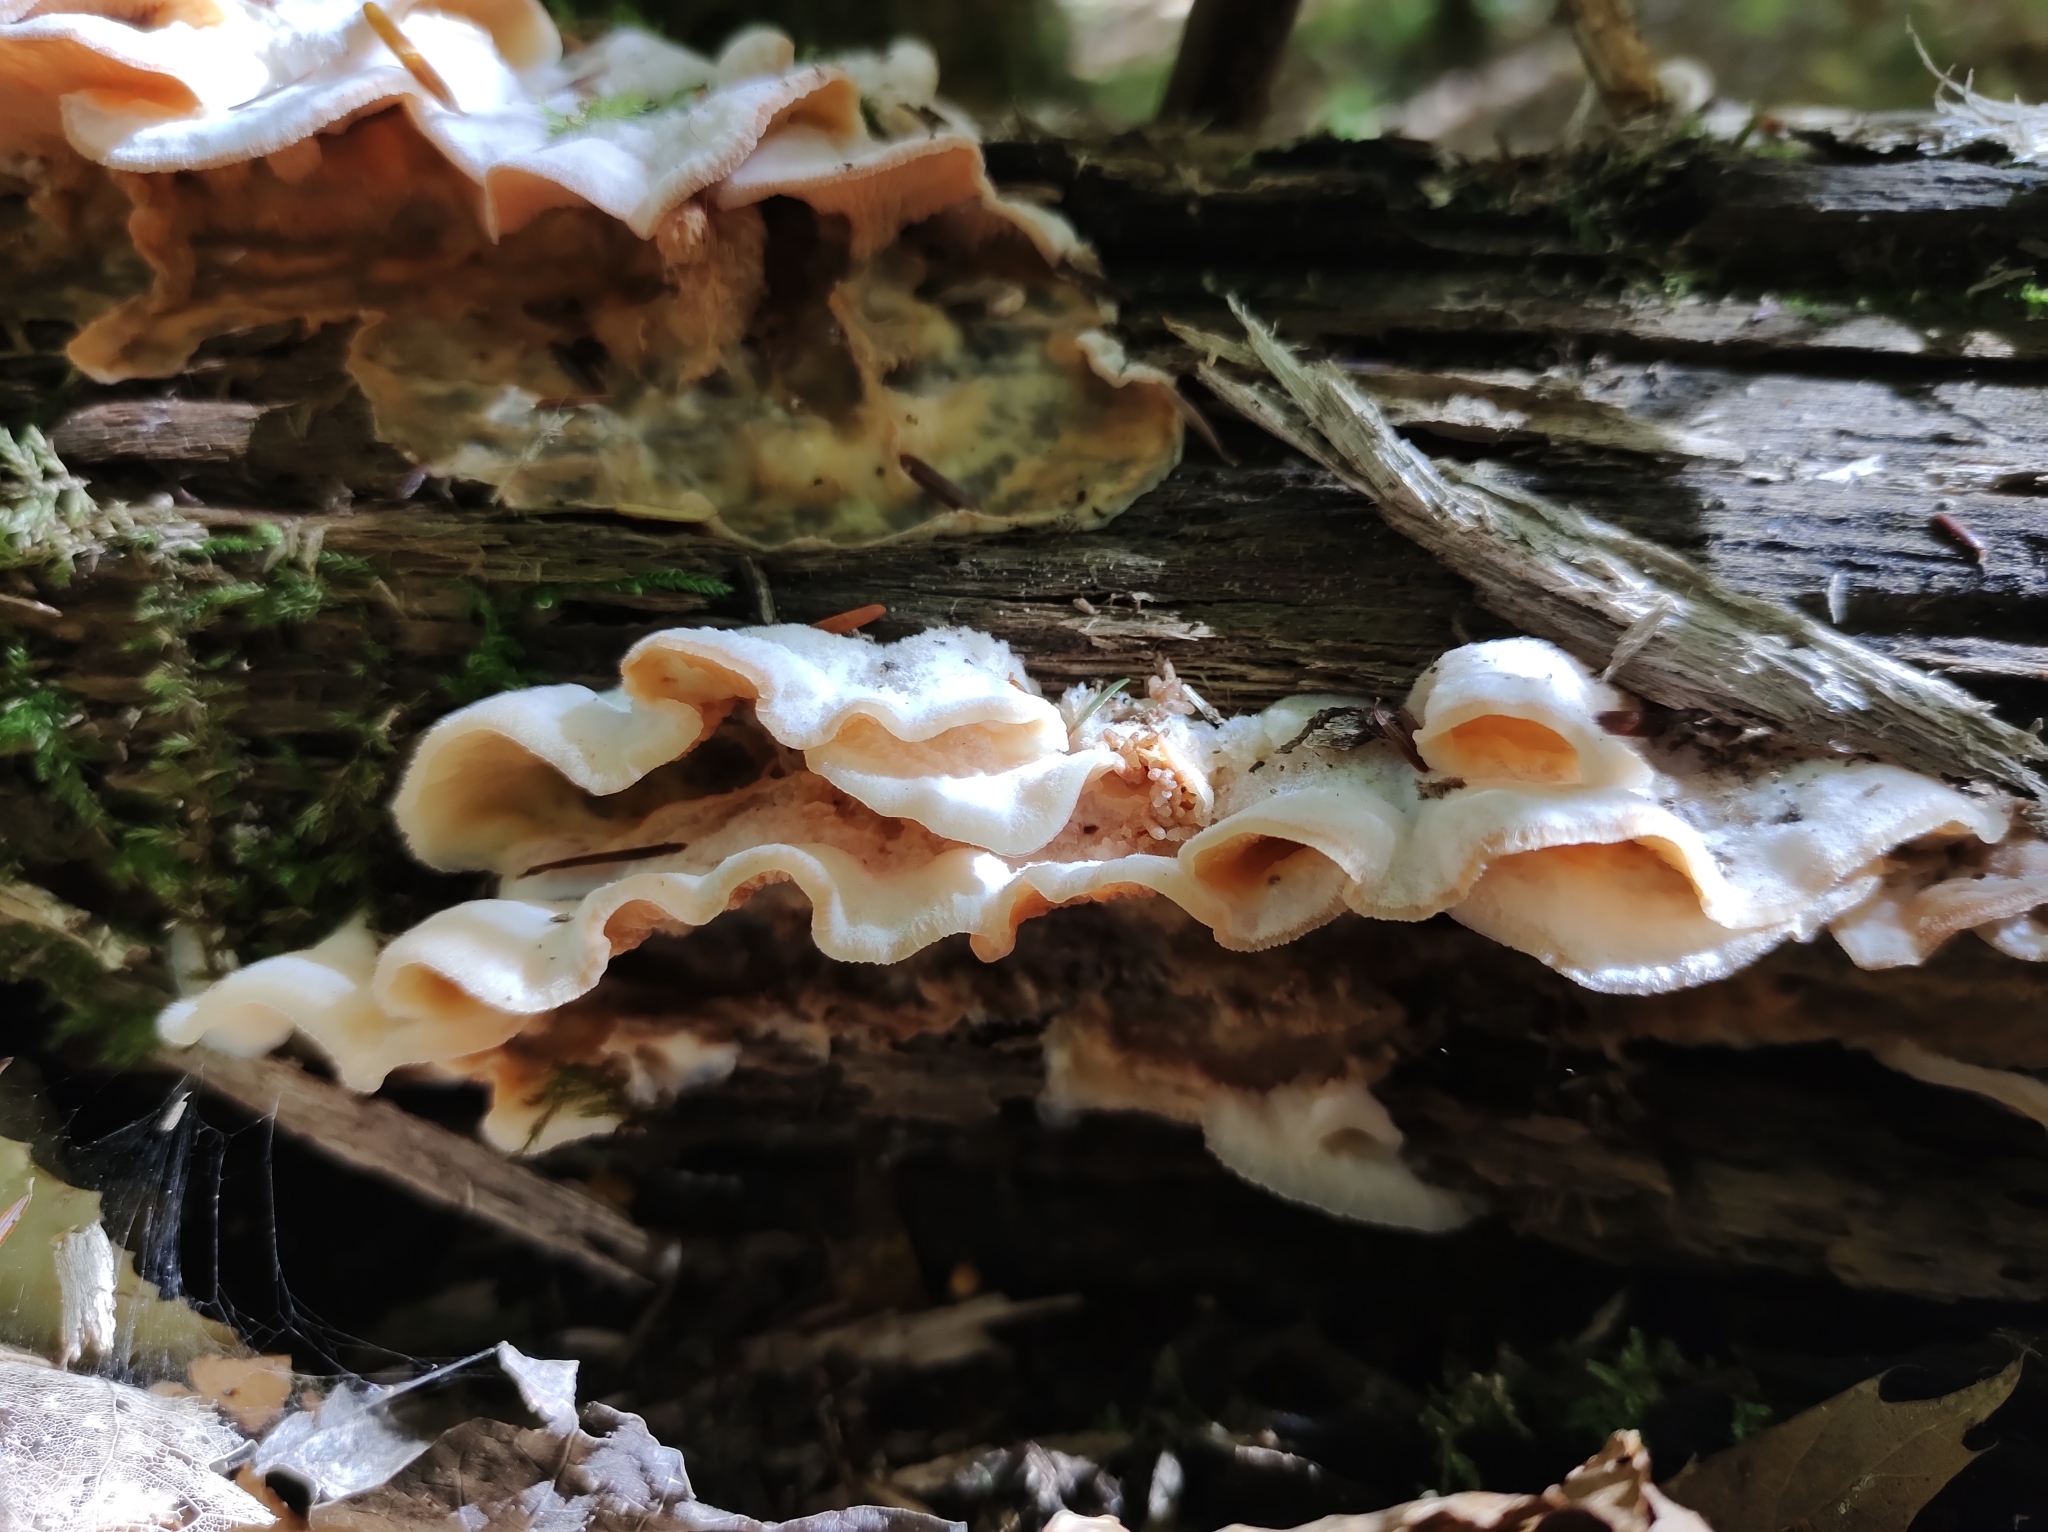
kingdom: Fungi
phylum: Basidiomycota
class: Agaricomycetes
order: Polyporales
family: Meruliaceae
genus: Phlebia
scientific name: Phlebia tremellosa
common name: Jelly rot
